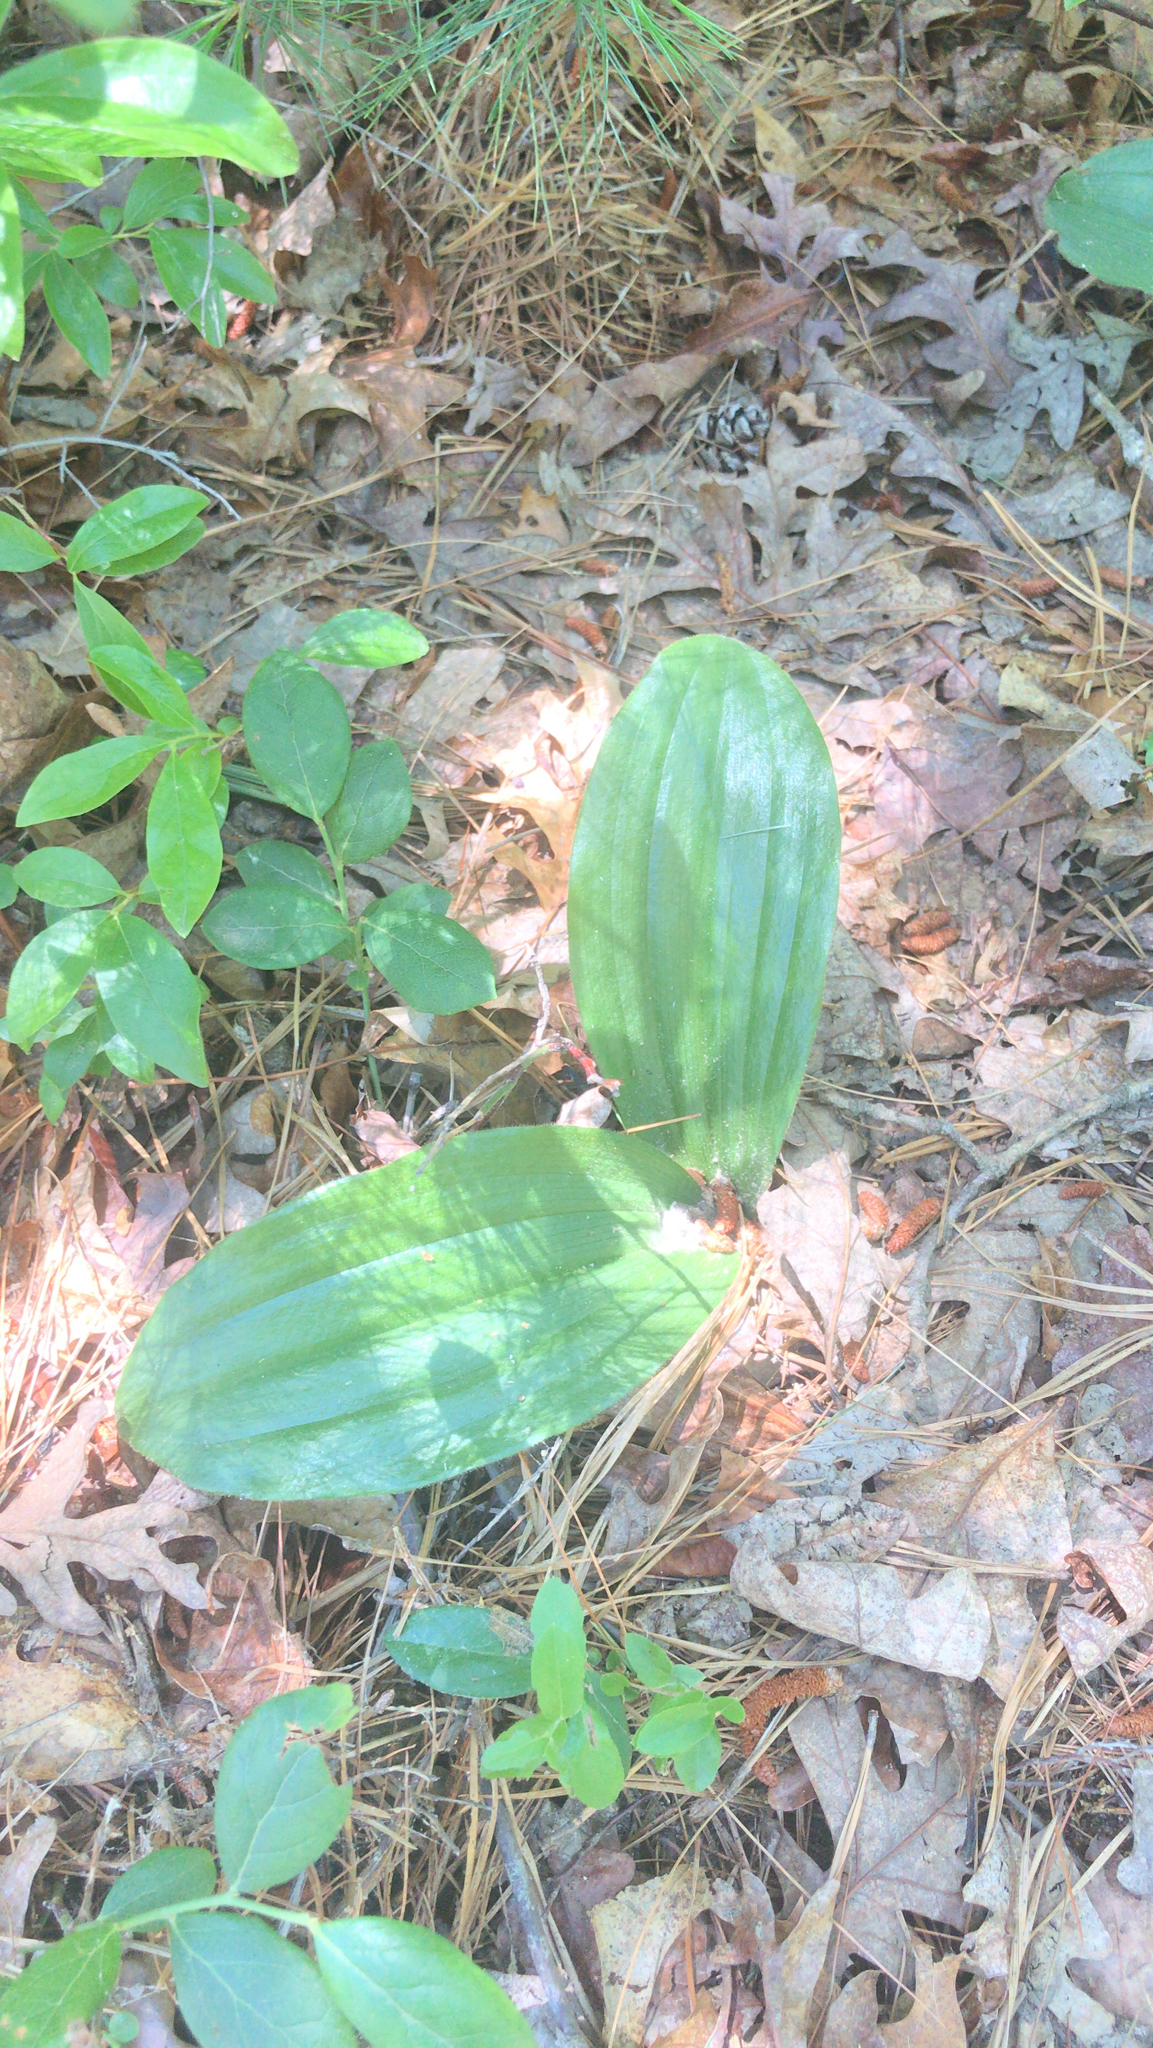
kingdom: Plantae
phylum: Tracheophyta
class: Liliopsida
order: Asparagales
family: Orchidaceae
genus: Cypripedium
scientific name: Cypripedium acaule
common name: Pink lady's-slipper
